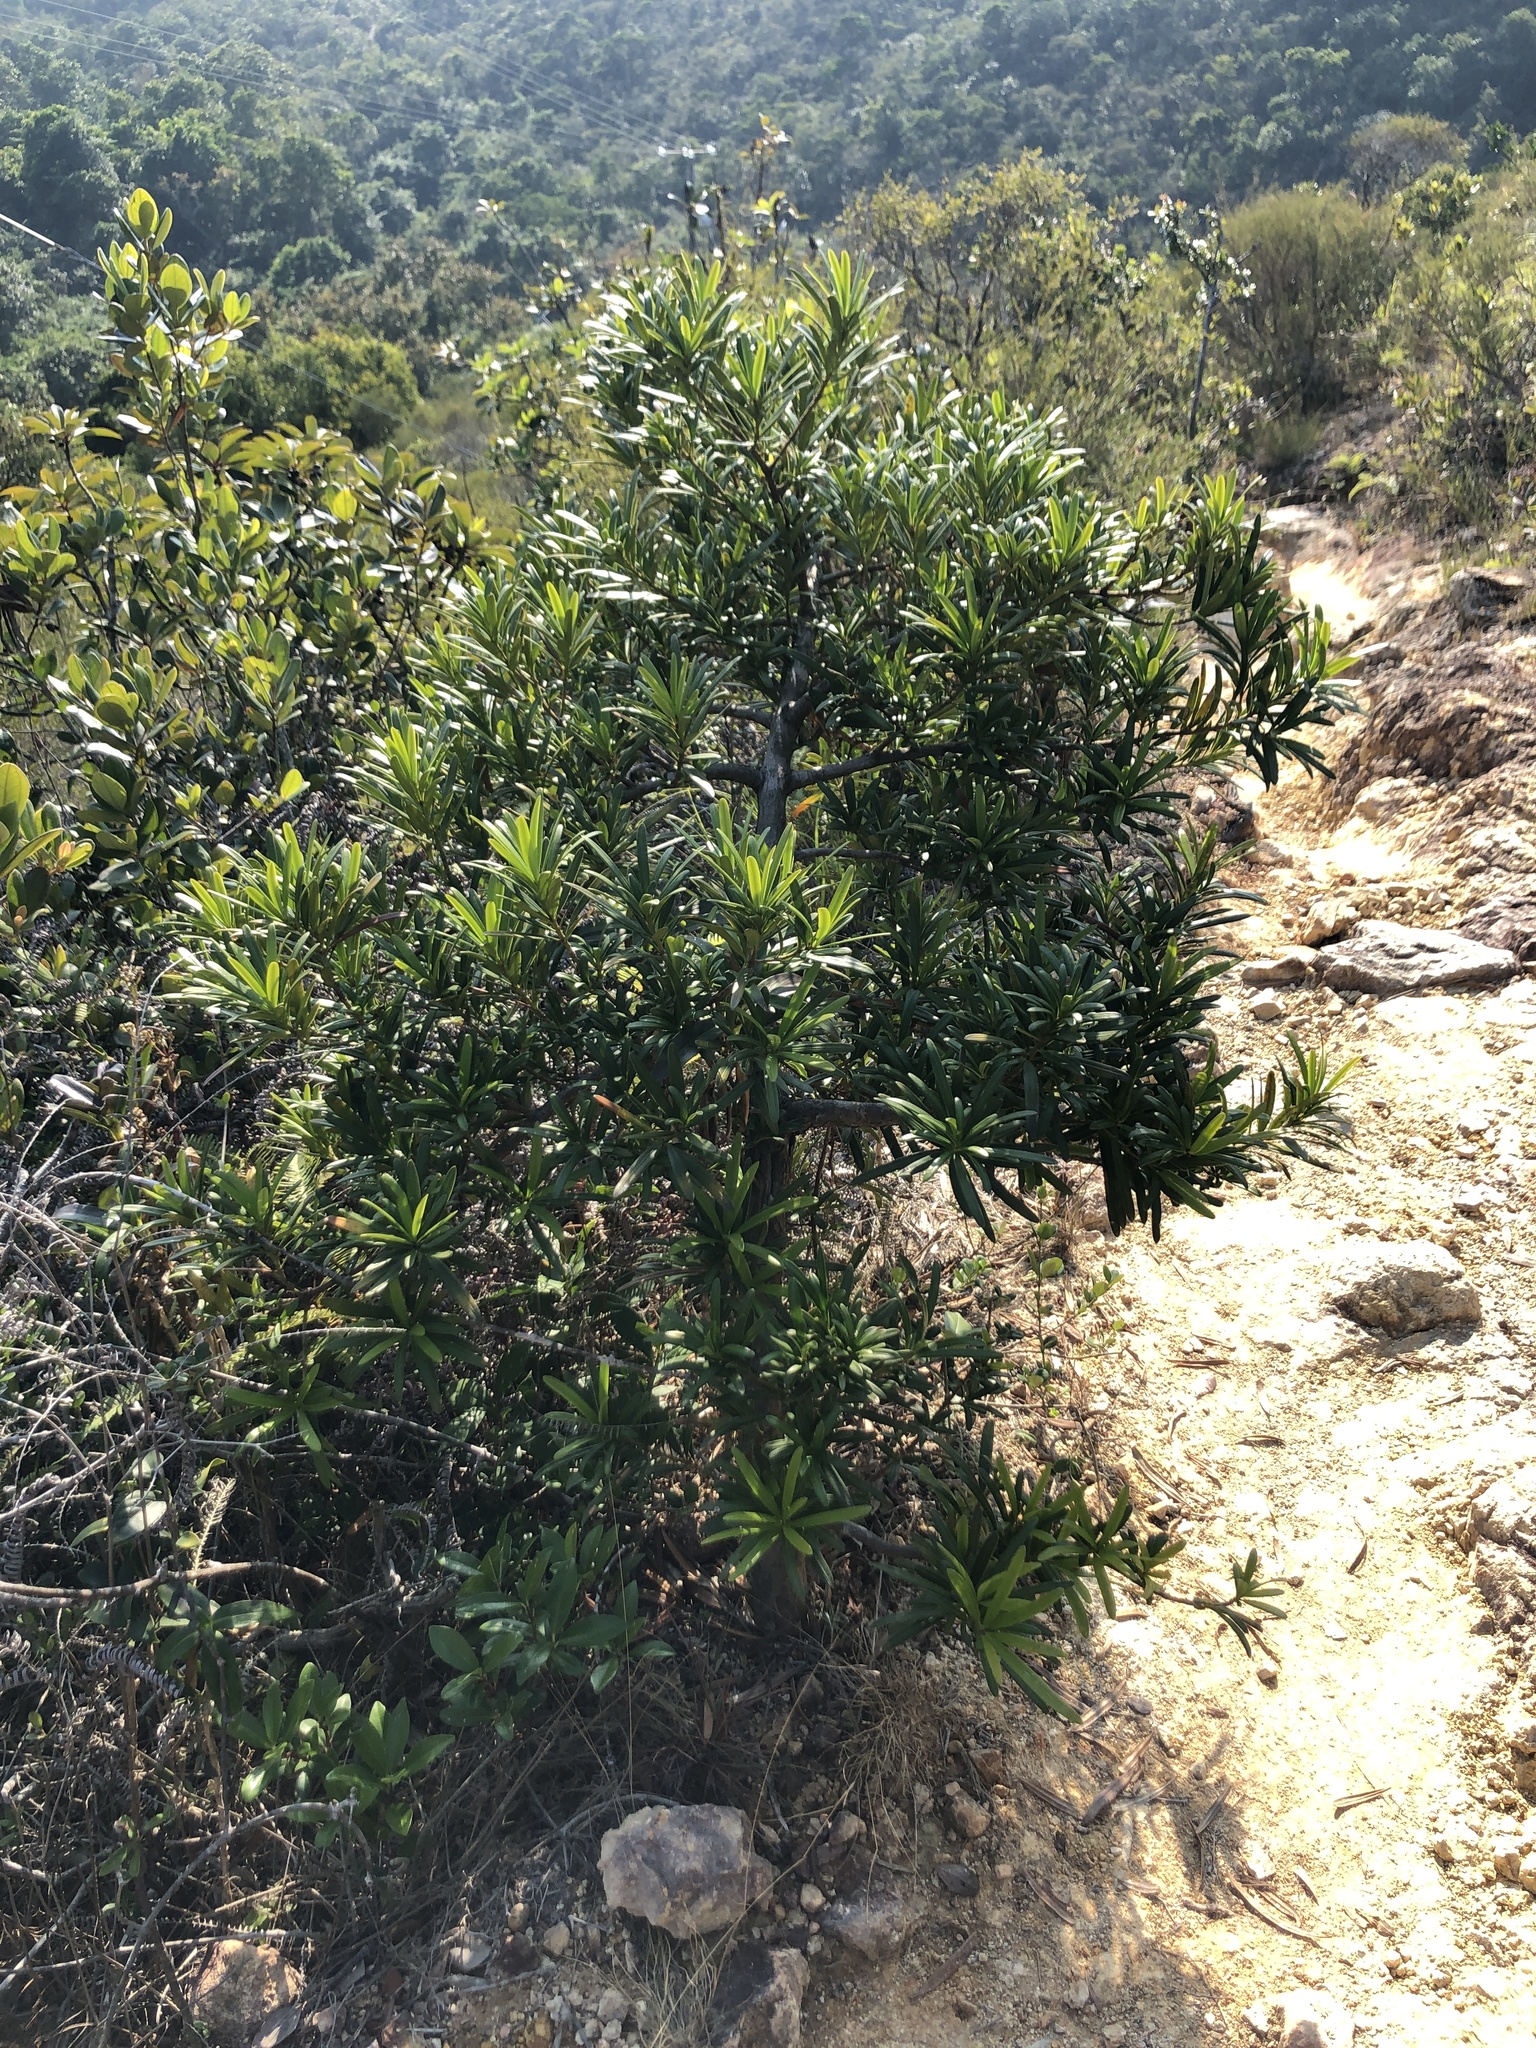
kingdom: Plantae
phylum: Tracheophyta
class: Pinopsida
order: Pinales
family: Podocarpaceae
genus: Podocarpus
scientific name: Podocarpus macrophyllus
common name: Japanese yew
